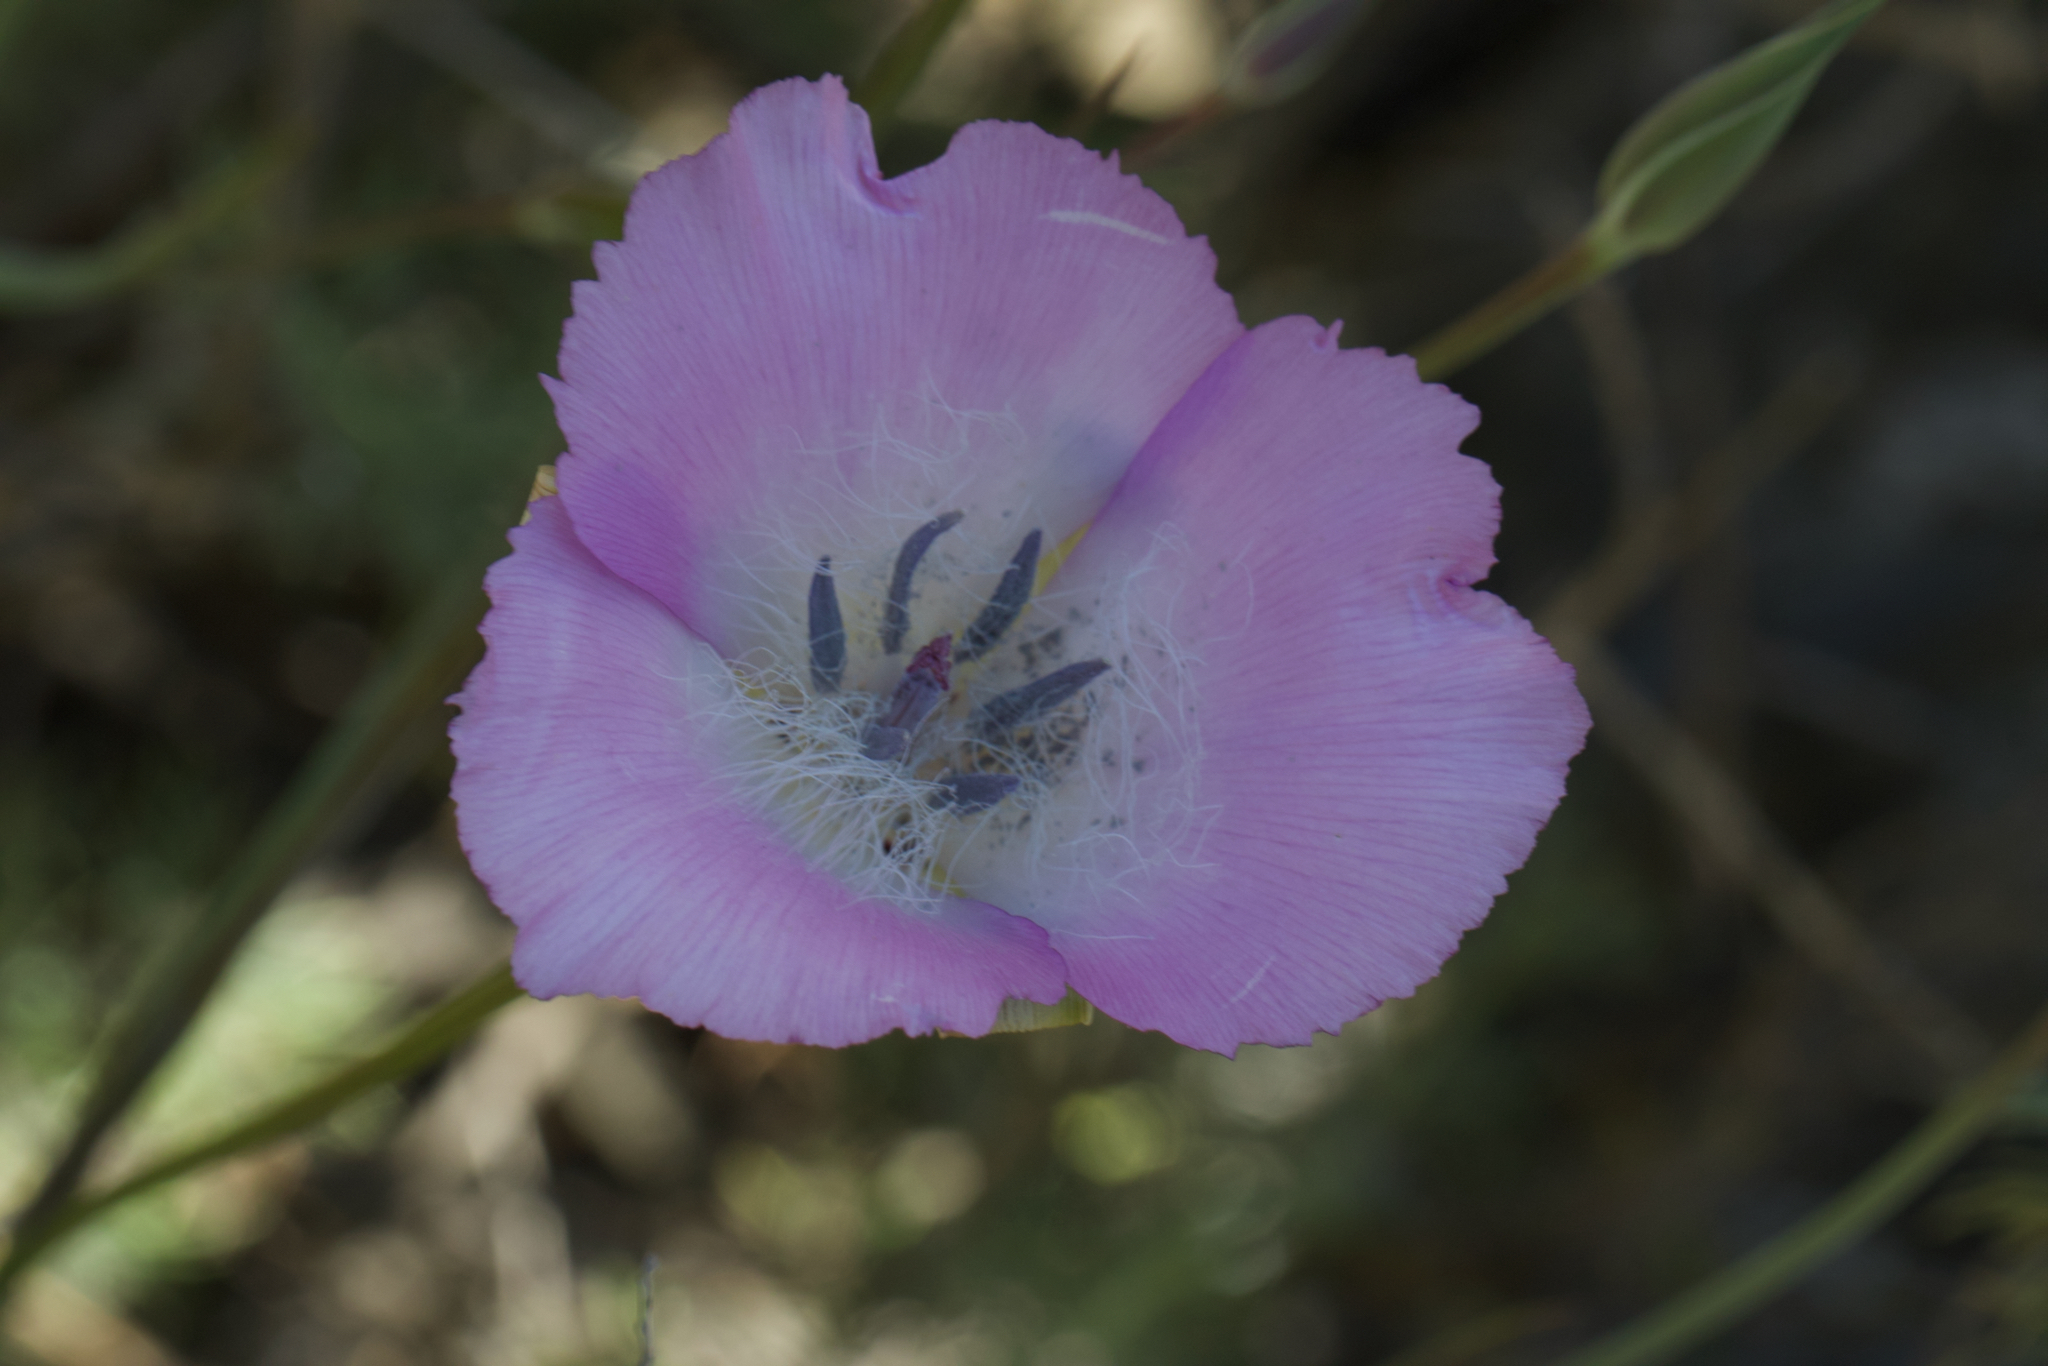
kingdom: Plantae
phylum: Tracheophyta
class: Liliopsida
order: Liliales
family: Liliaceae
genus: Calochortus
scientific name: Calochortus splendens
